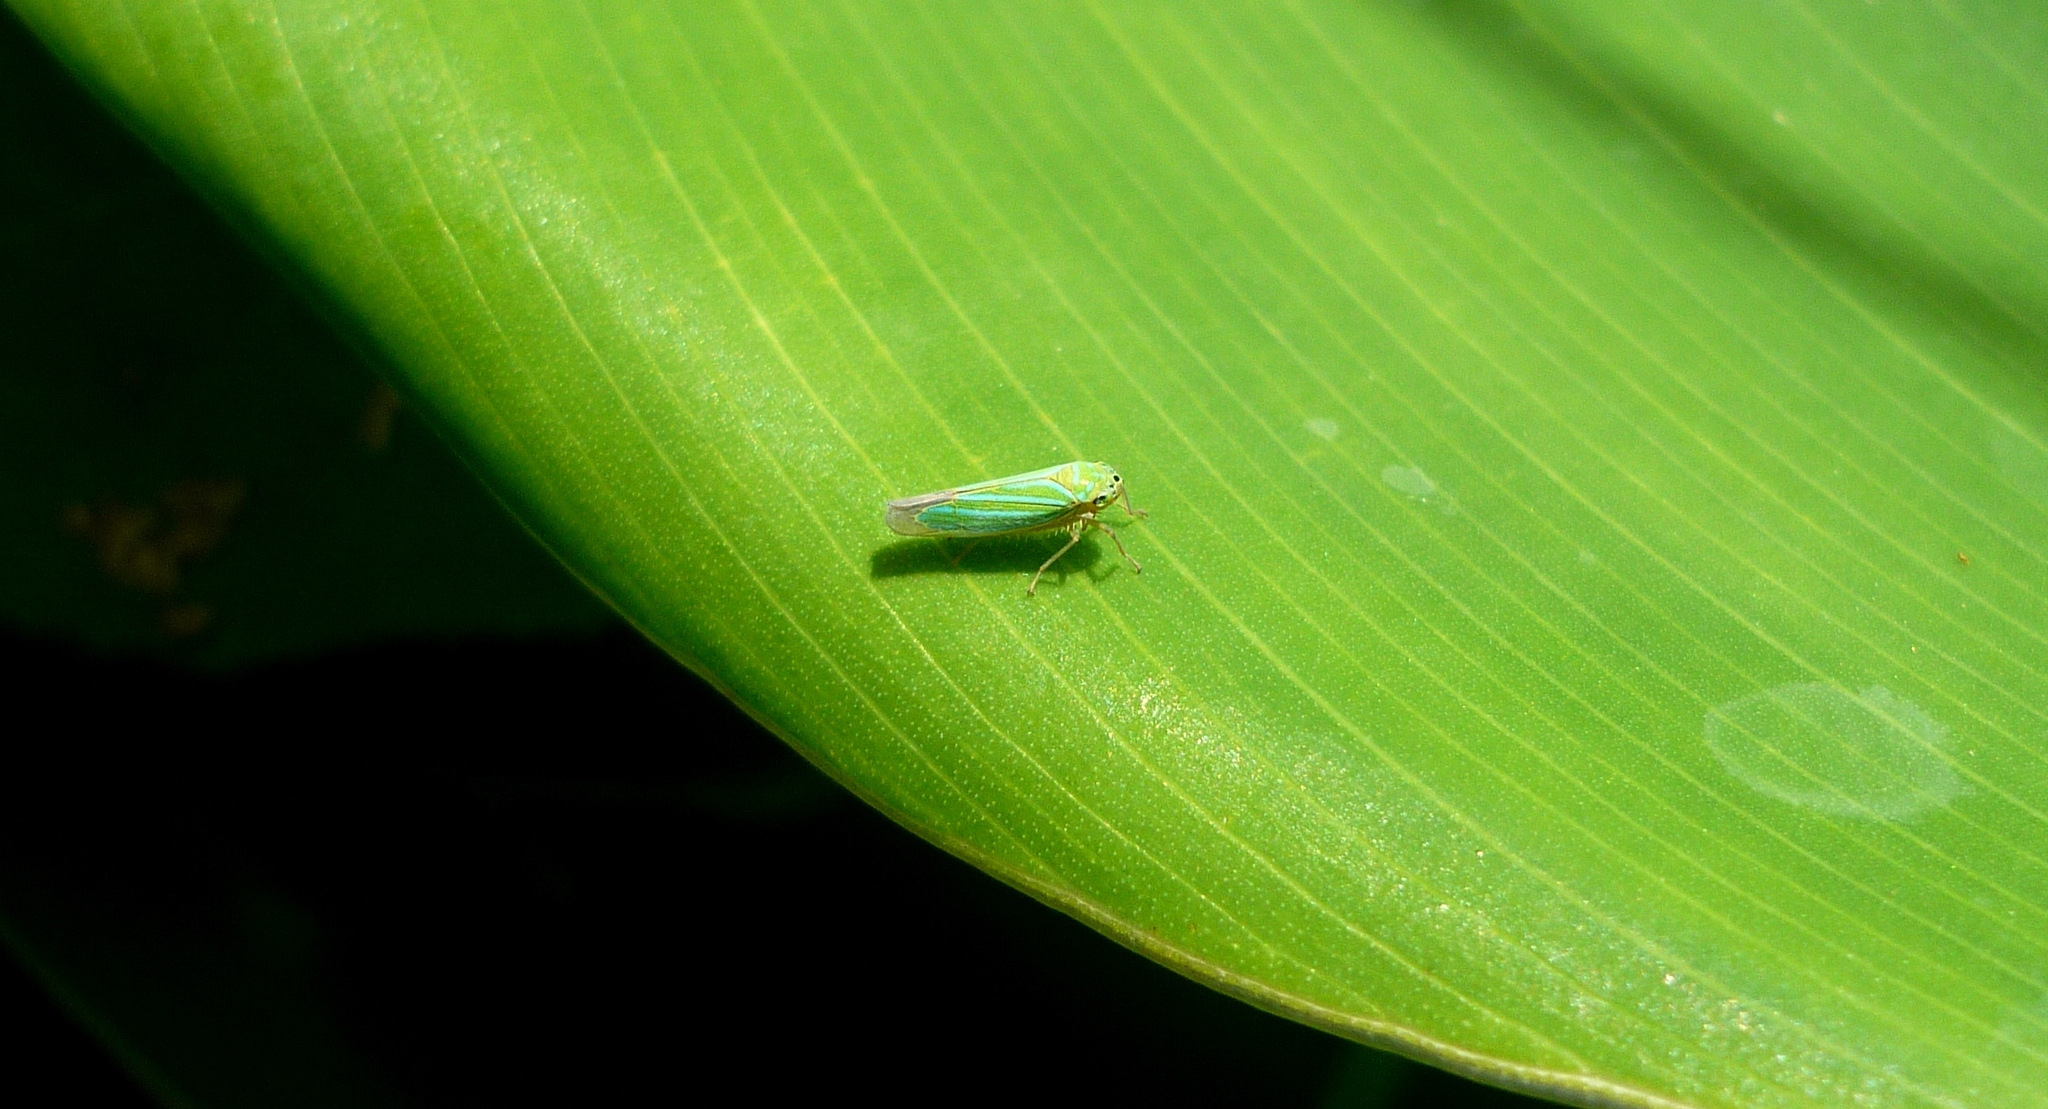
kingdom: Animalia
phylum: Arthropoda
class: Insecta
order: Hemiptera
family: Cicadellidae
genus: Chlorogonalia
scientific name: Chlorogonalia coeruleovittata
